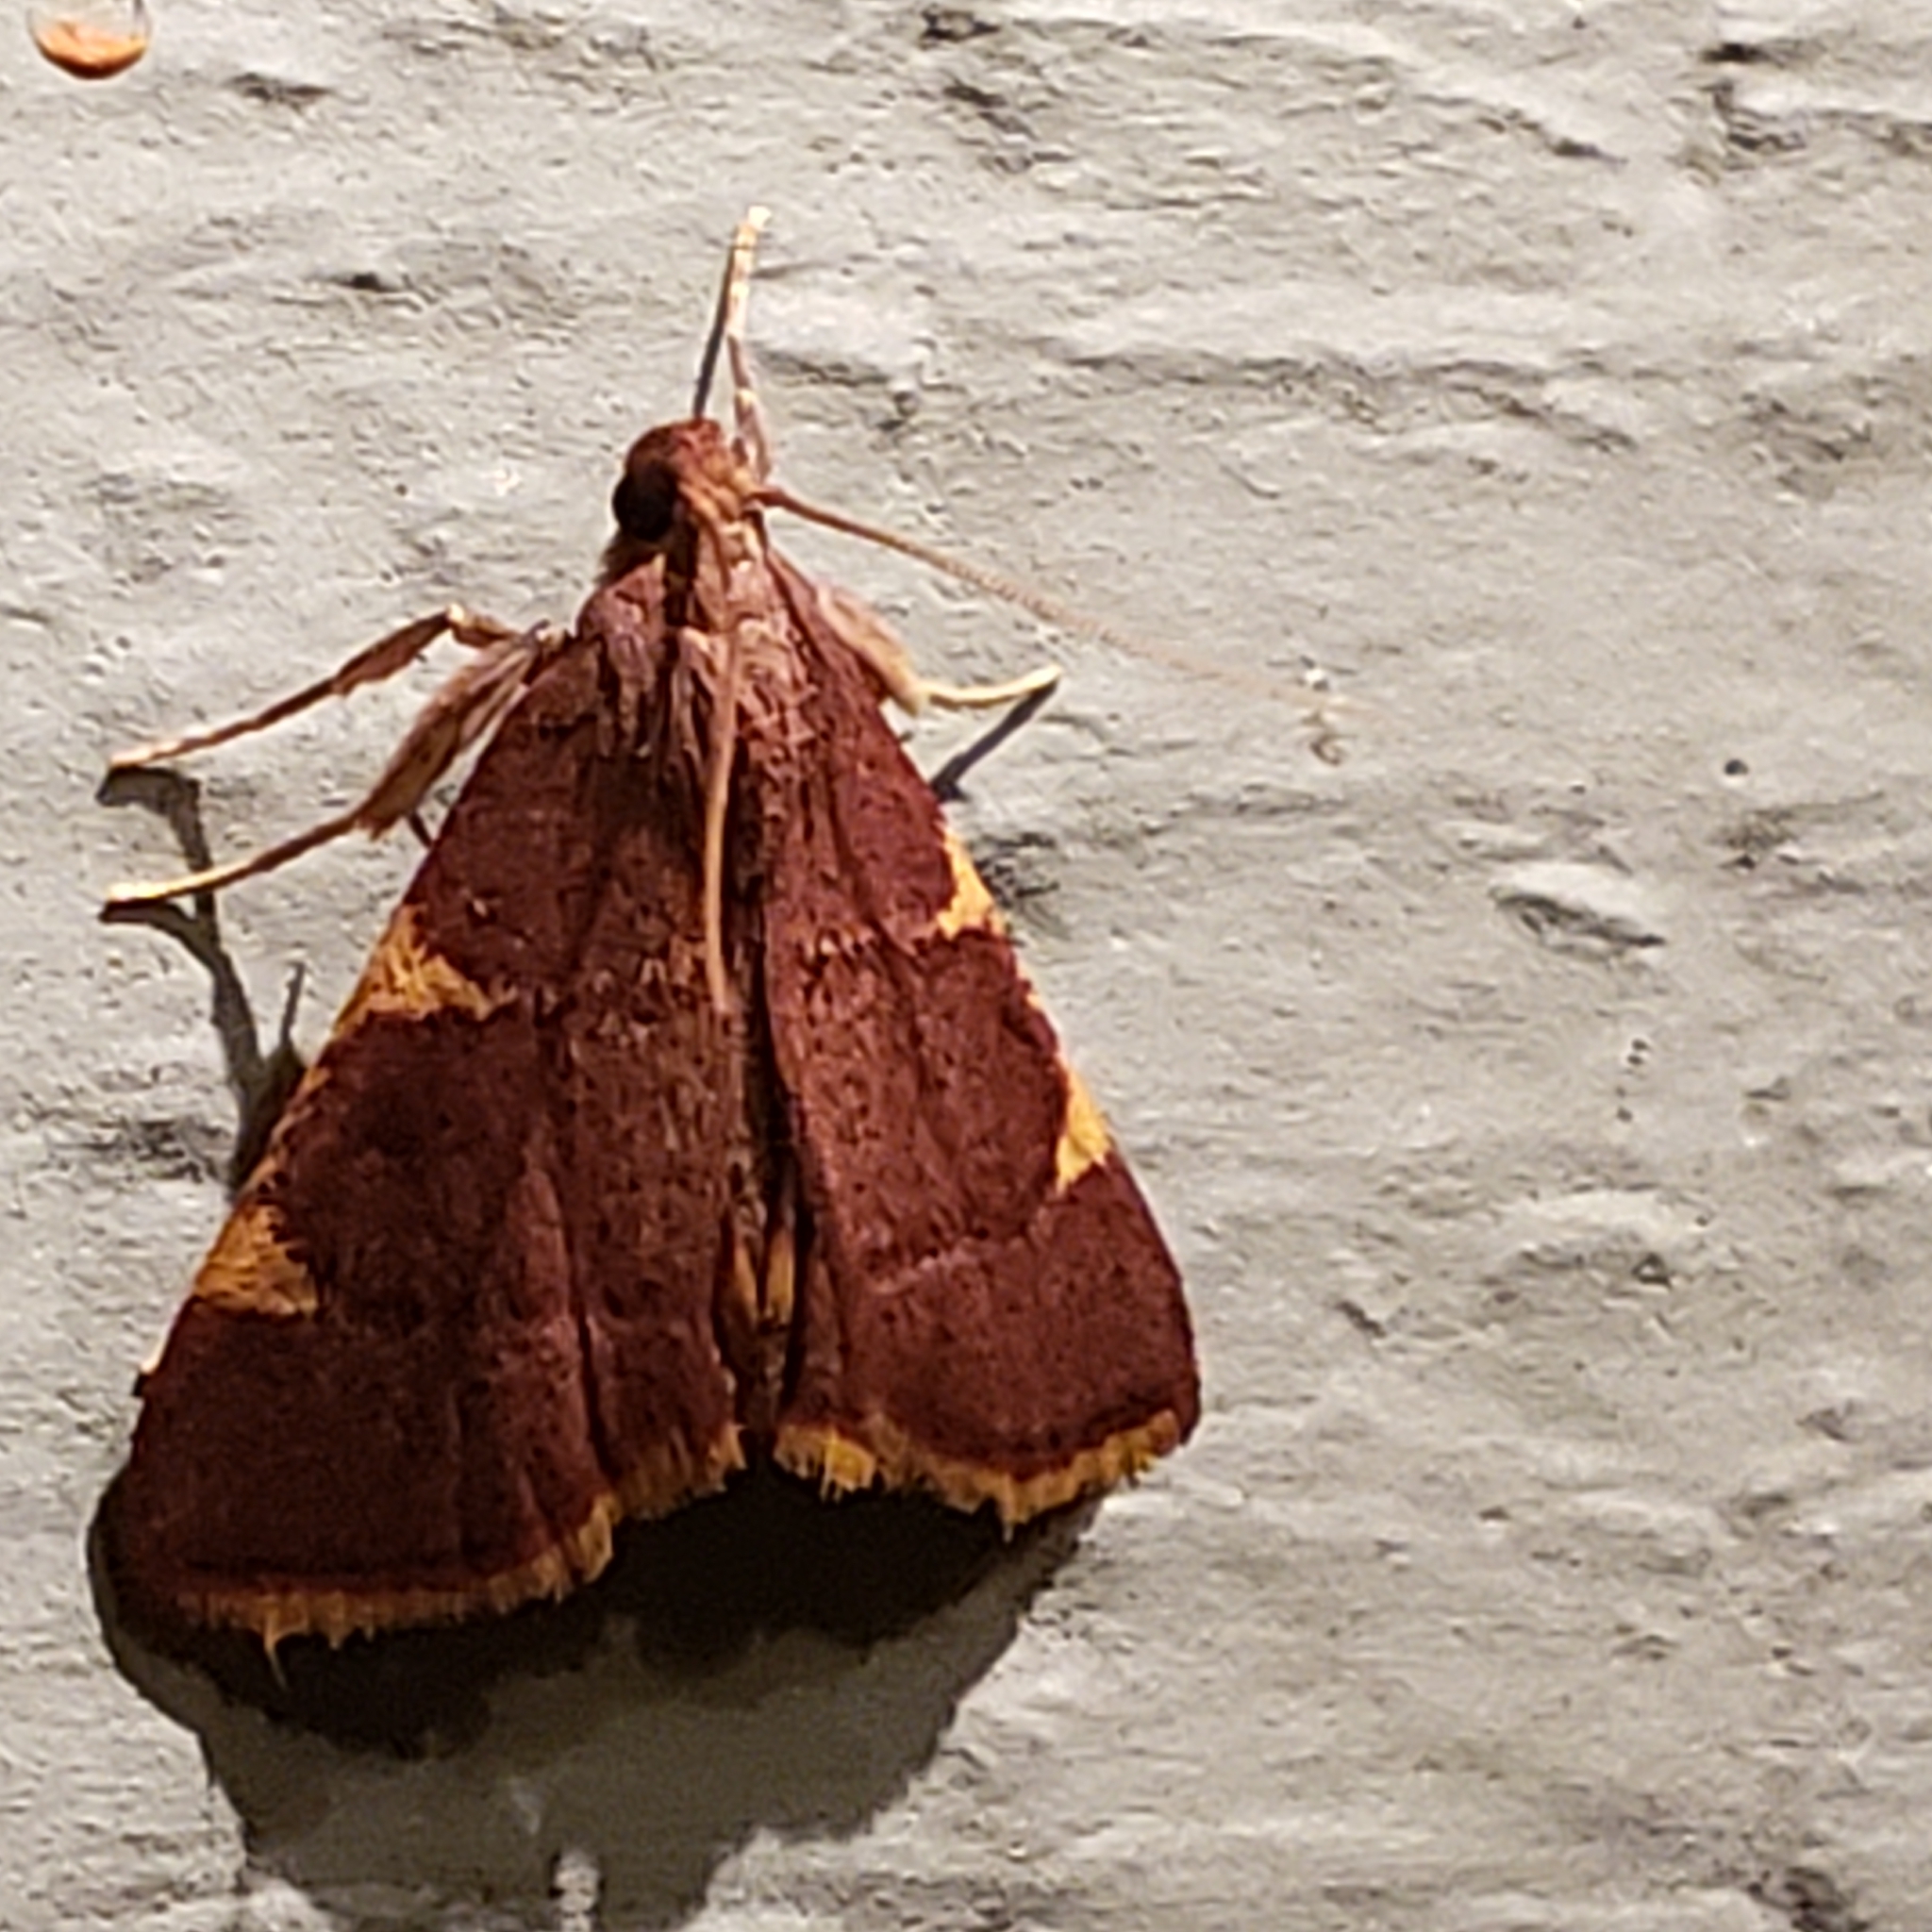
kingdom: Animalia
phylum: Arthropoda
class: Insecta
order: Lepidoptera
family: Pyralidae
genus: Hypsopygia
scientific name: Hypsopygia olinalis
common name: Yellow-fringed dolichomia moth
